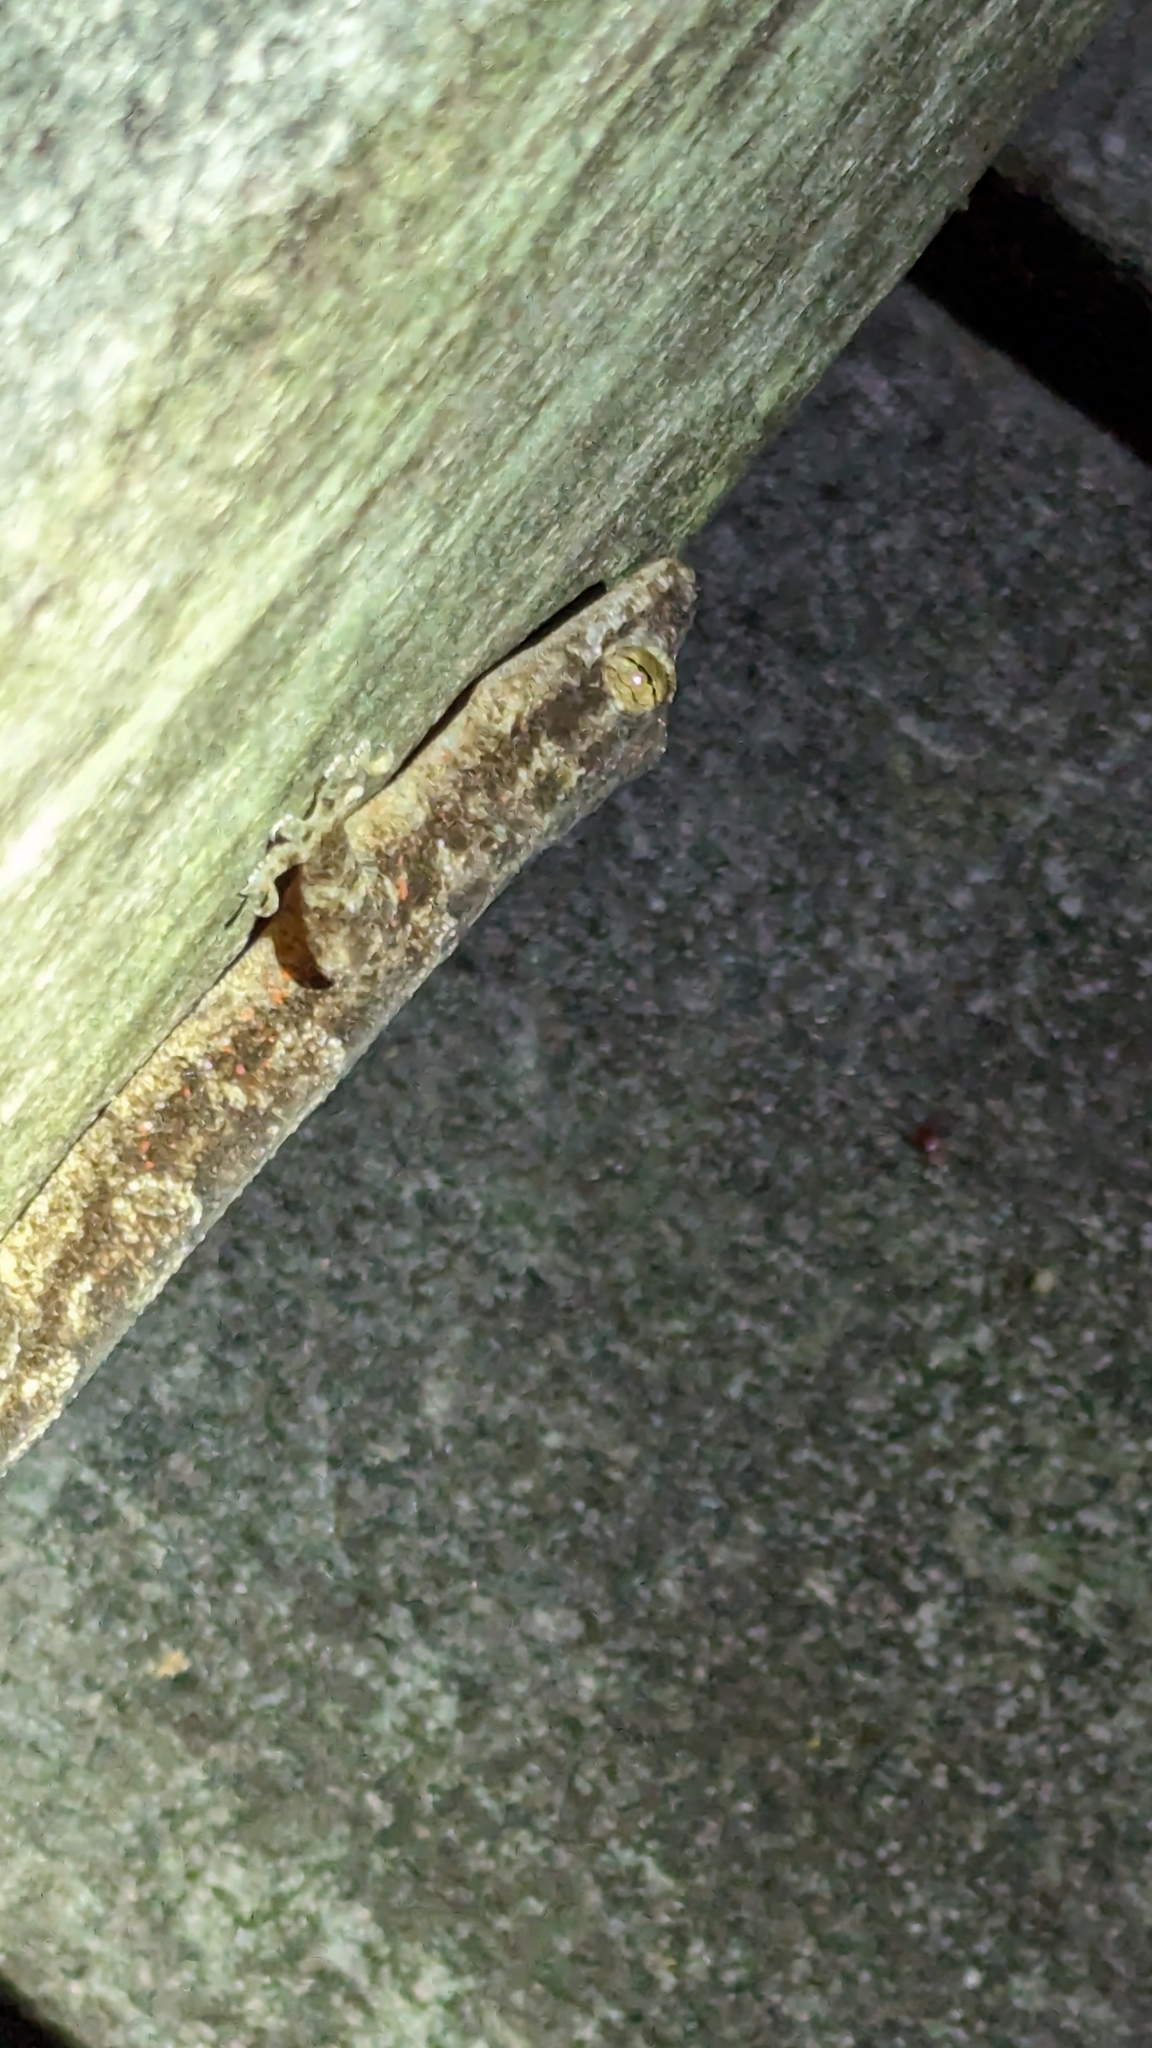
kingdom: Animalia
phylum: Chordata
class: Squamata
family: Gekkonidae
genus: Hemidactylus
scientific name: Hemidactylus mabouia
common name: House gecko
